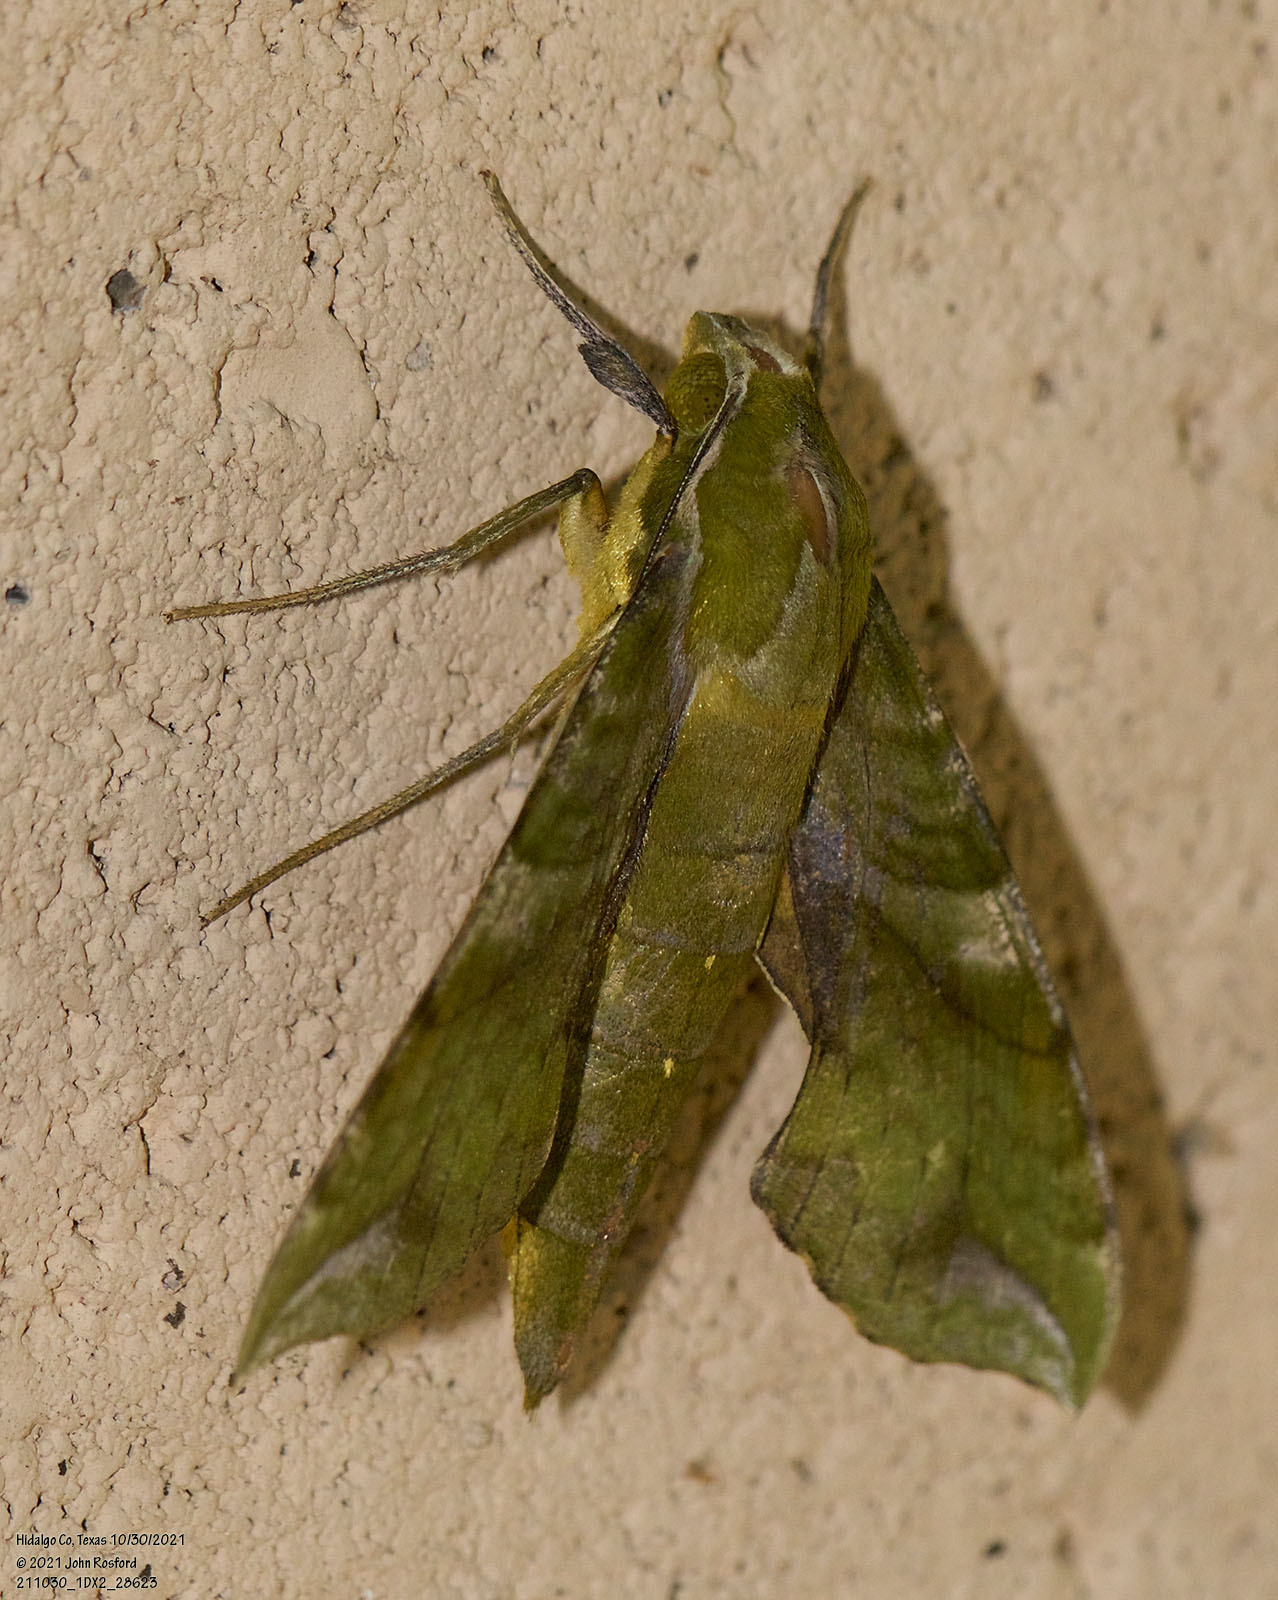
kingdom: Animalia
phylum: Arthropoda
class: Insecta
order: Lepidoptera
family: Sphingidae
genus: Xylophanes
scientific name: Xylophanes pluto
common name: Pluto sphinx
